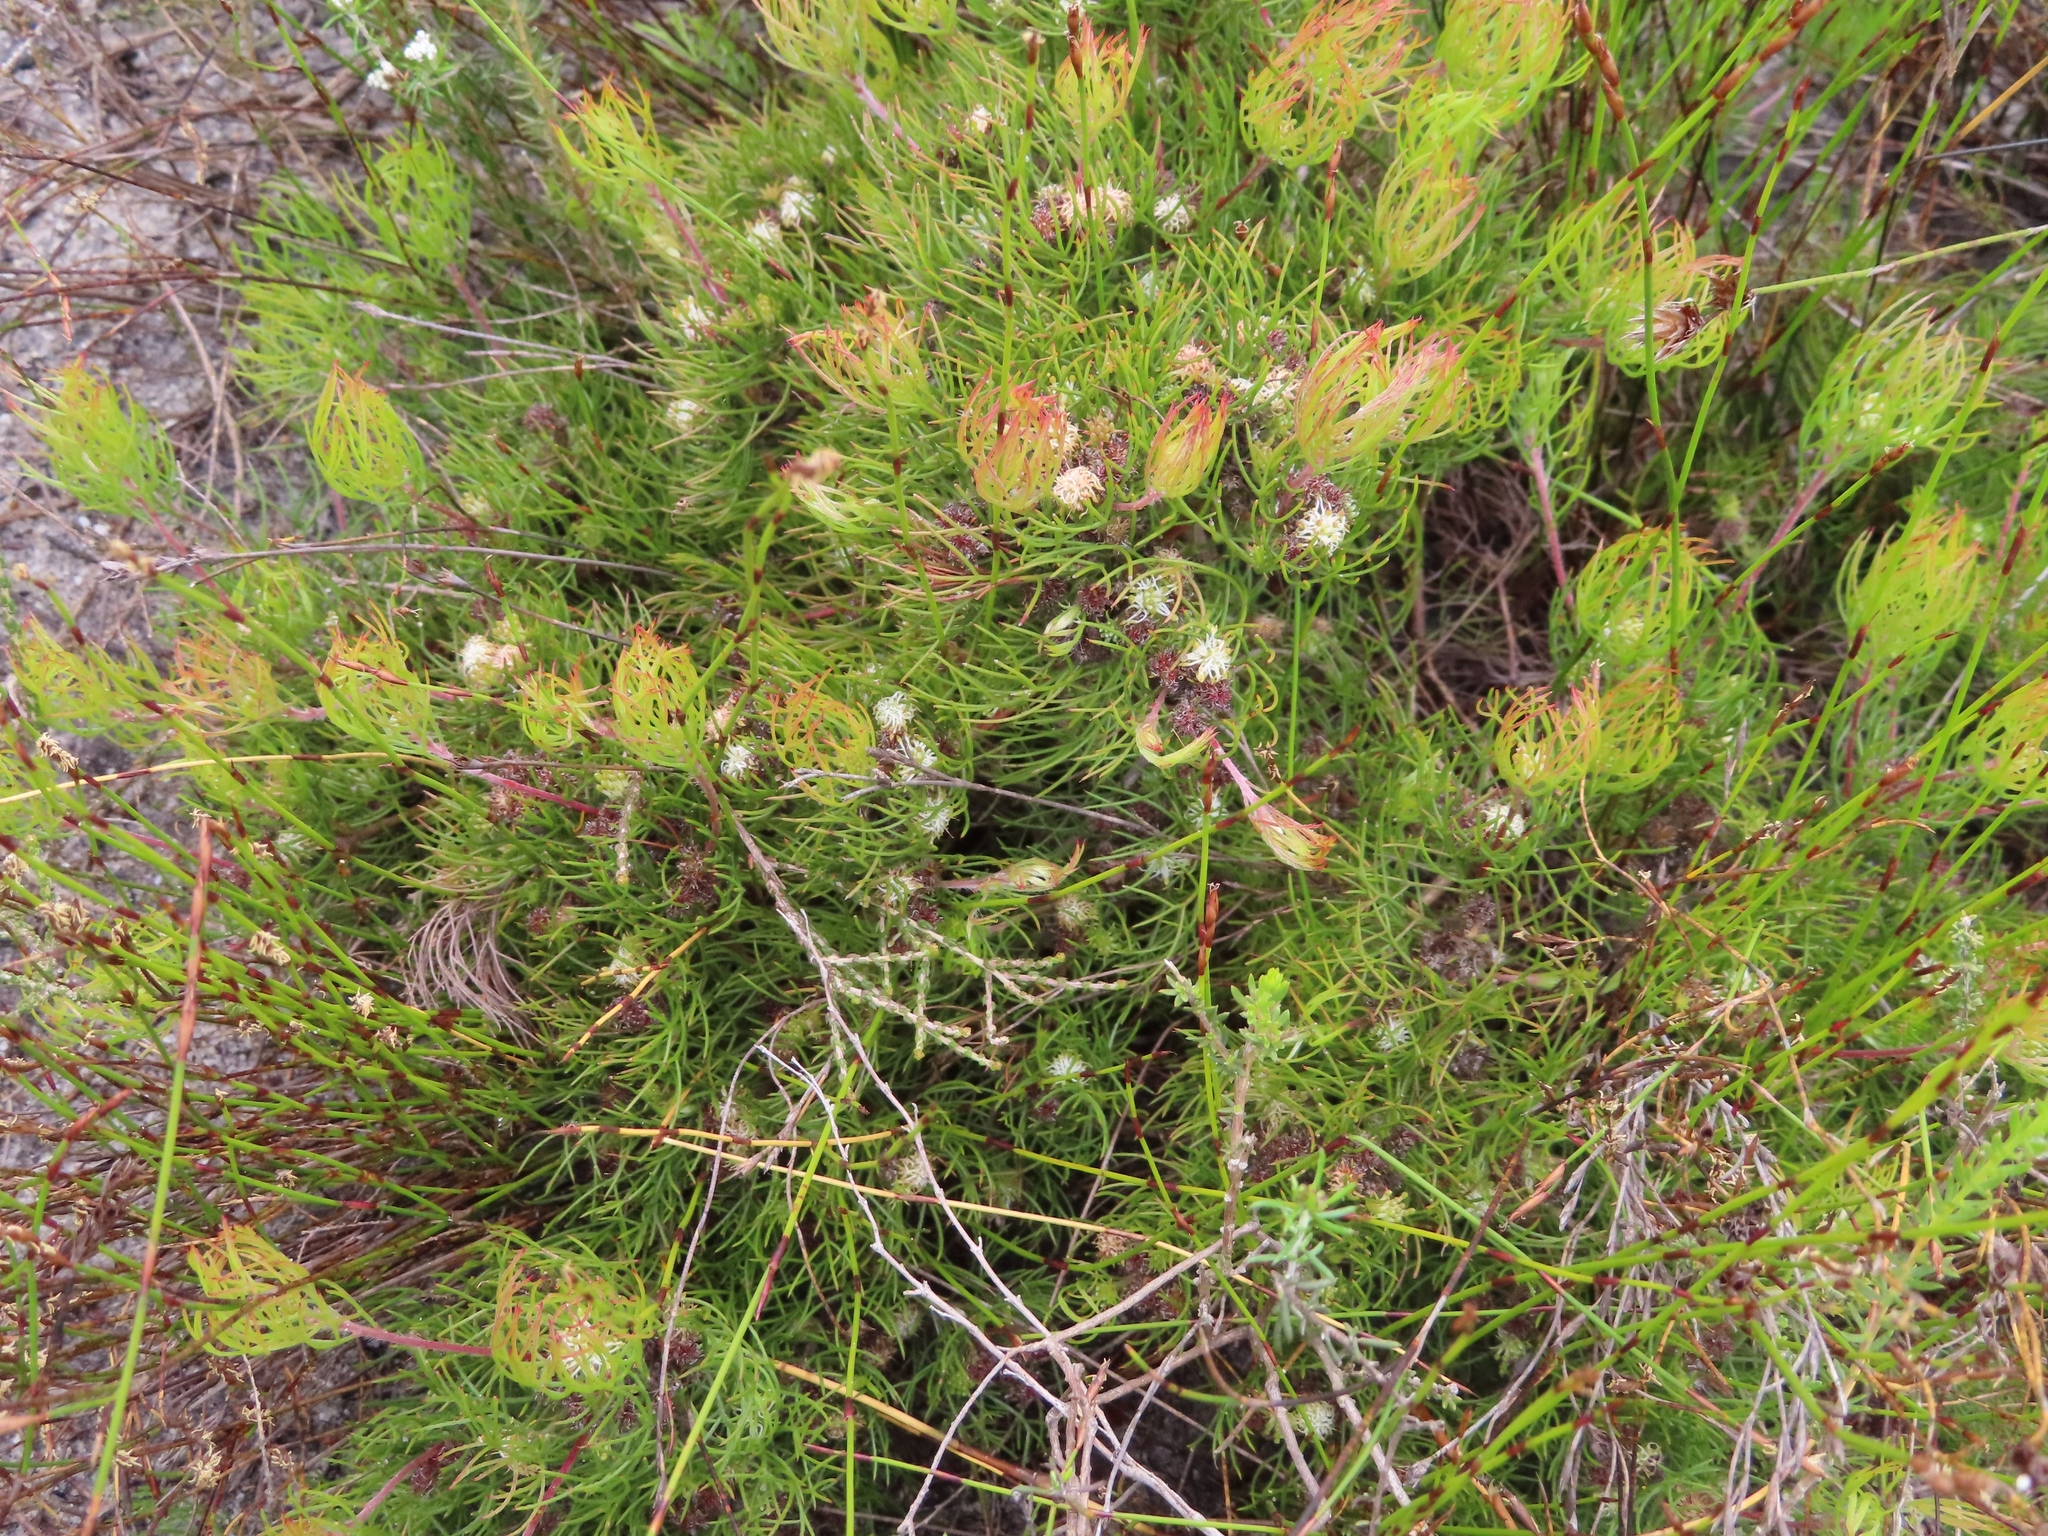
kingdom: Plantae
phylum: Tracheophyta
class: Magnoliopsida
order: Proteales
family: Proteaceae
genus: Serruria
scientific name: Serruria inconspicua
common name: Cryptic spiderhead
